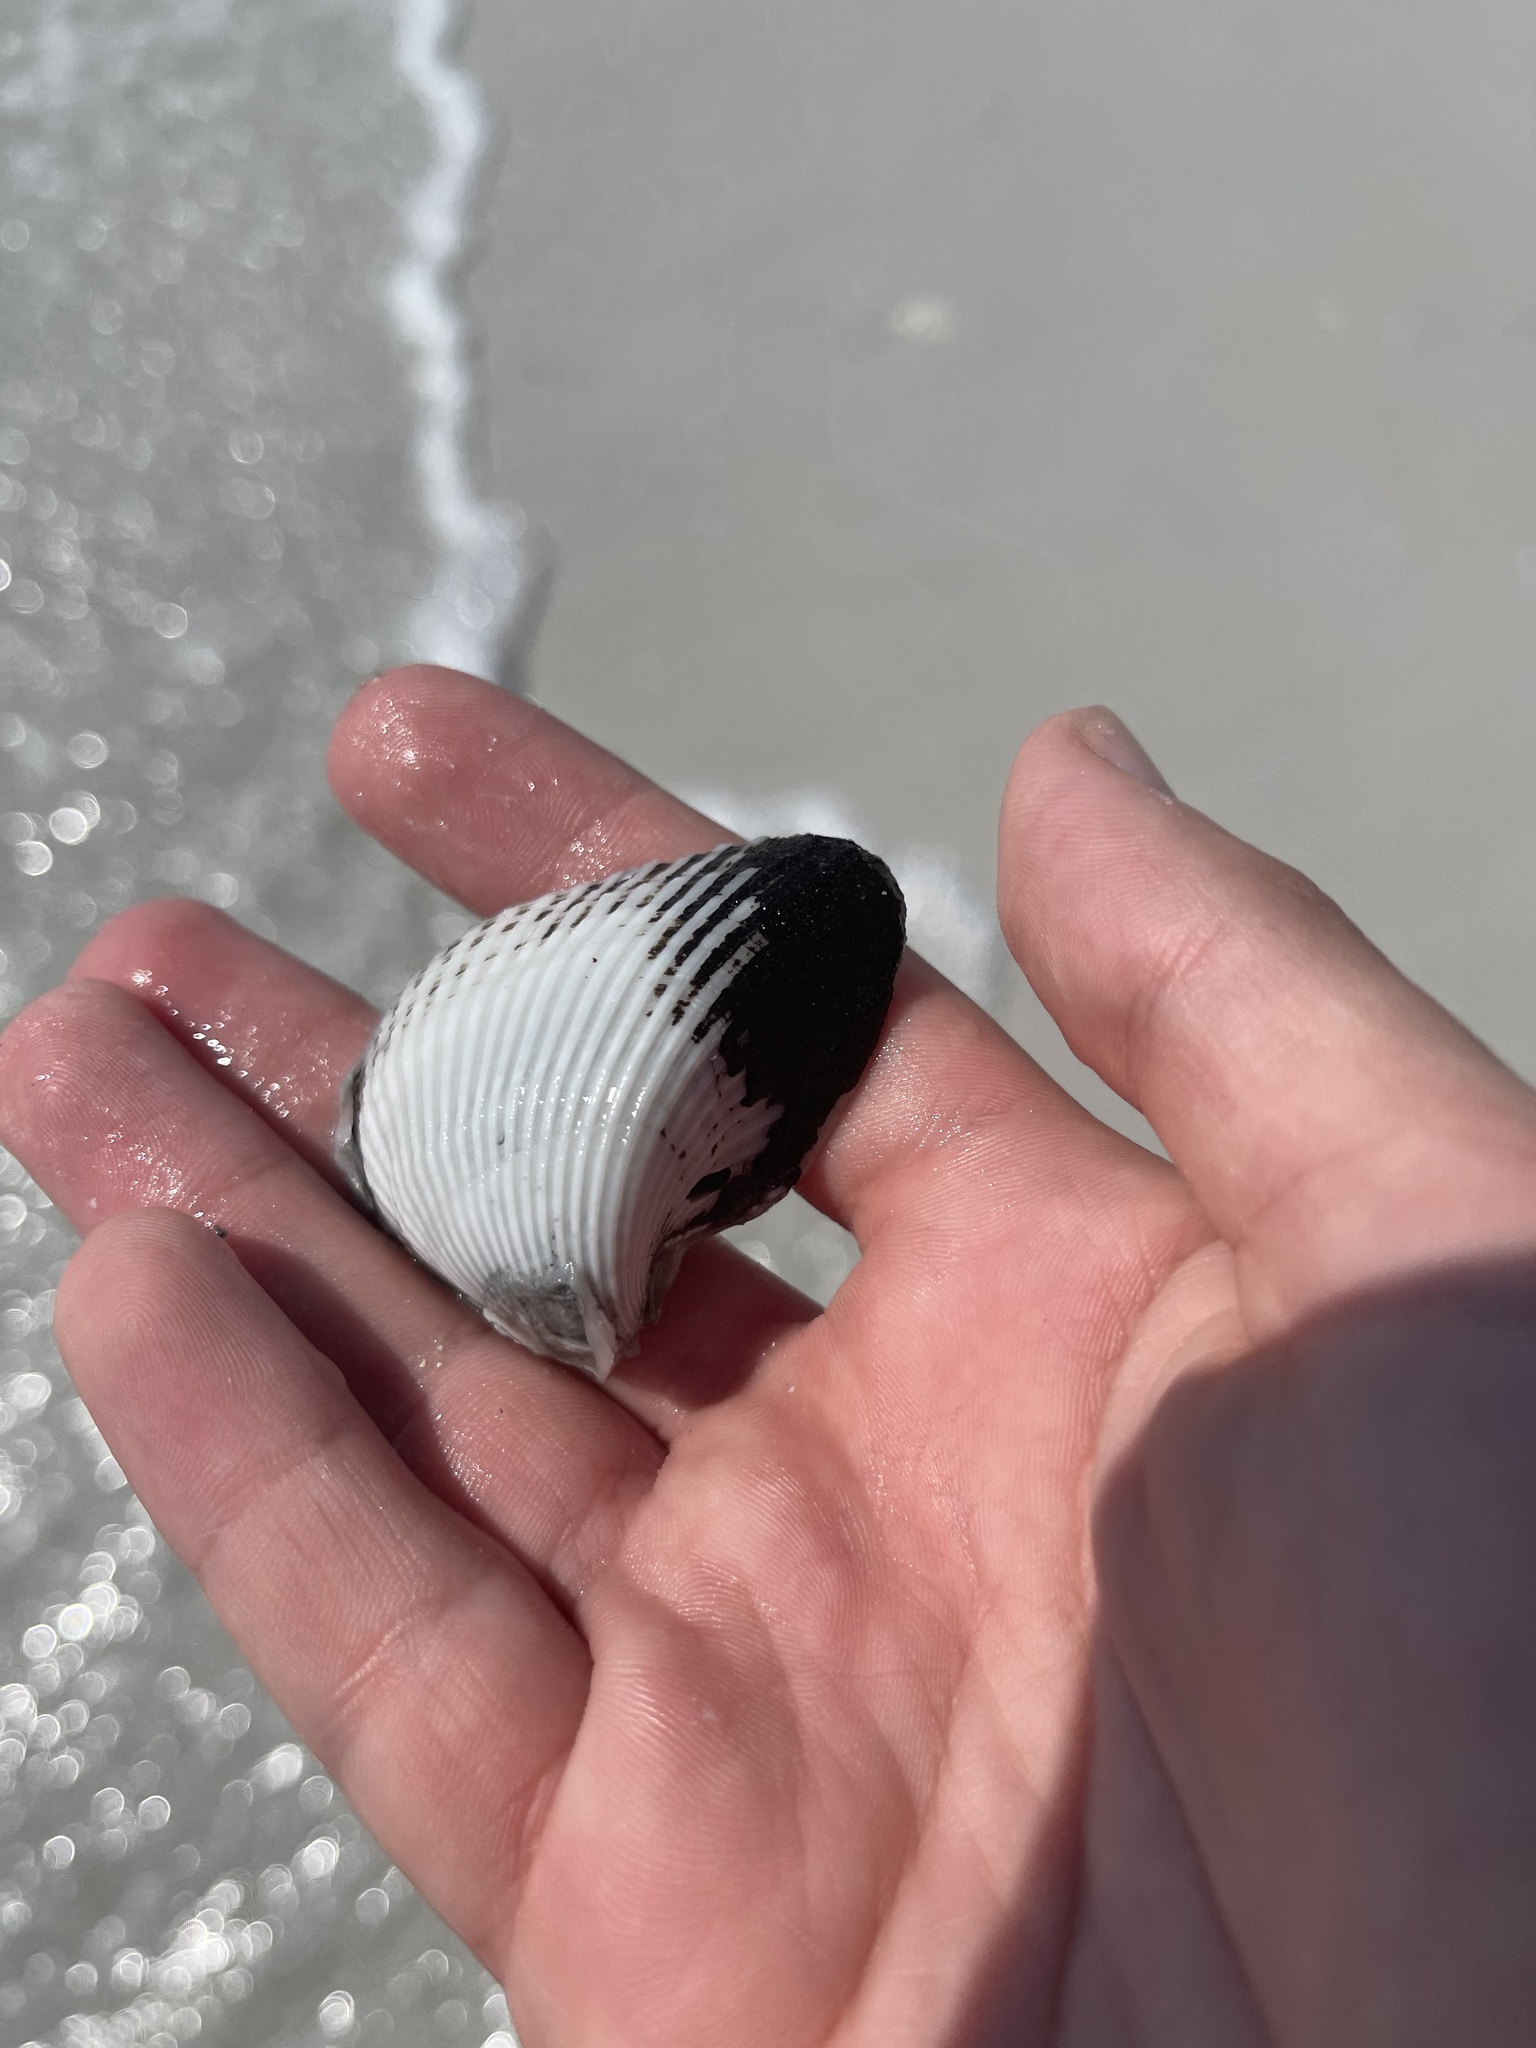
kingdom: Animalia
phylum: Mollusca
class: Bivalvia
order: Arcida
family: Noetiidae
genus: Noetia
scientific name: Noetia ponderosa
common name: Ponderous ark
